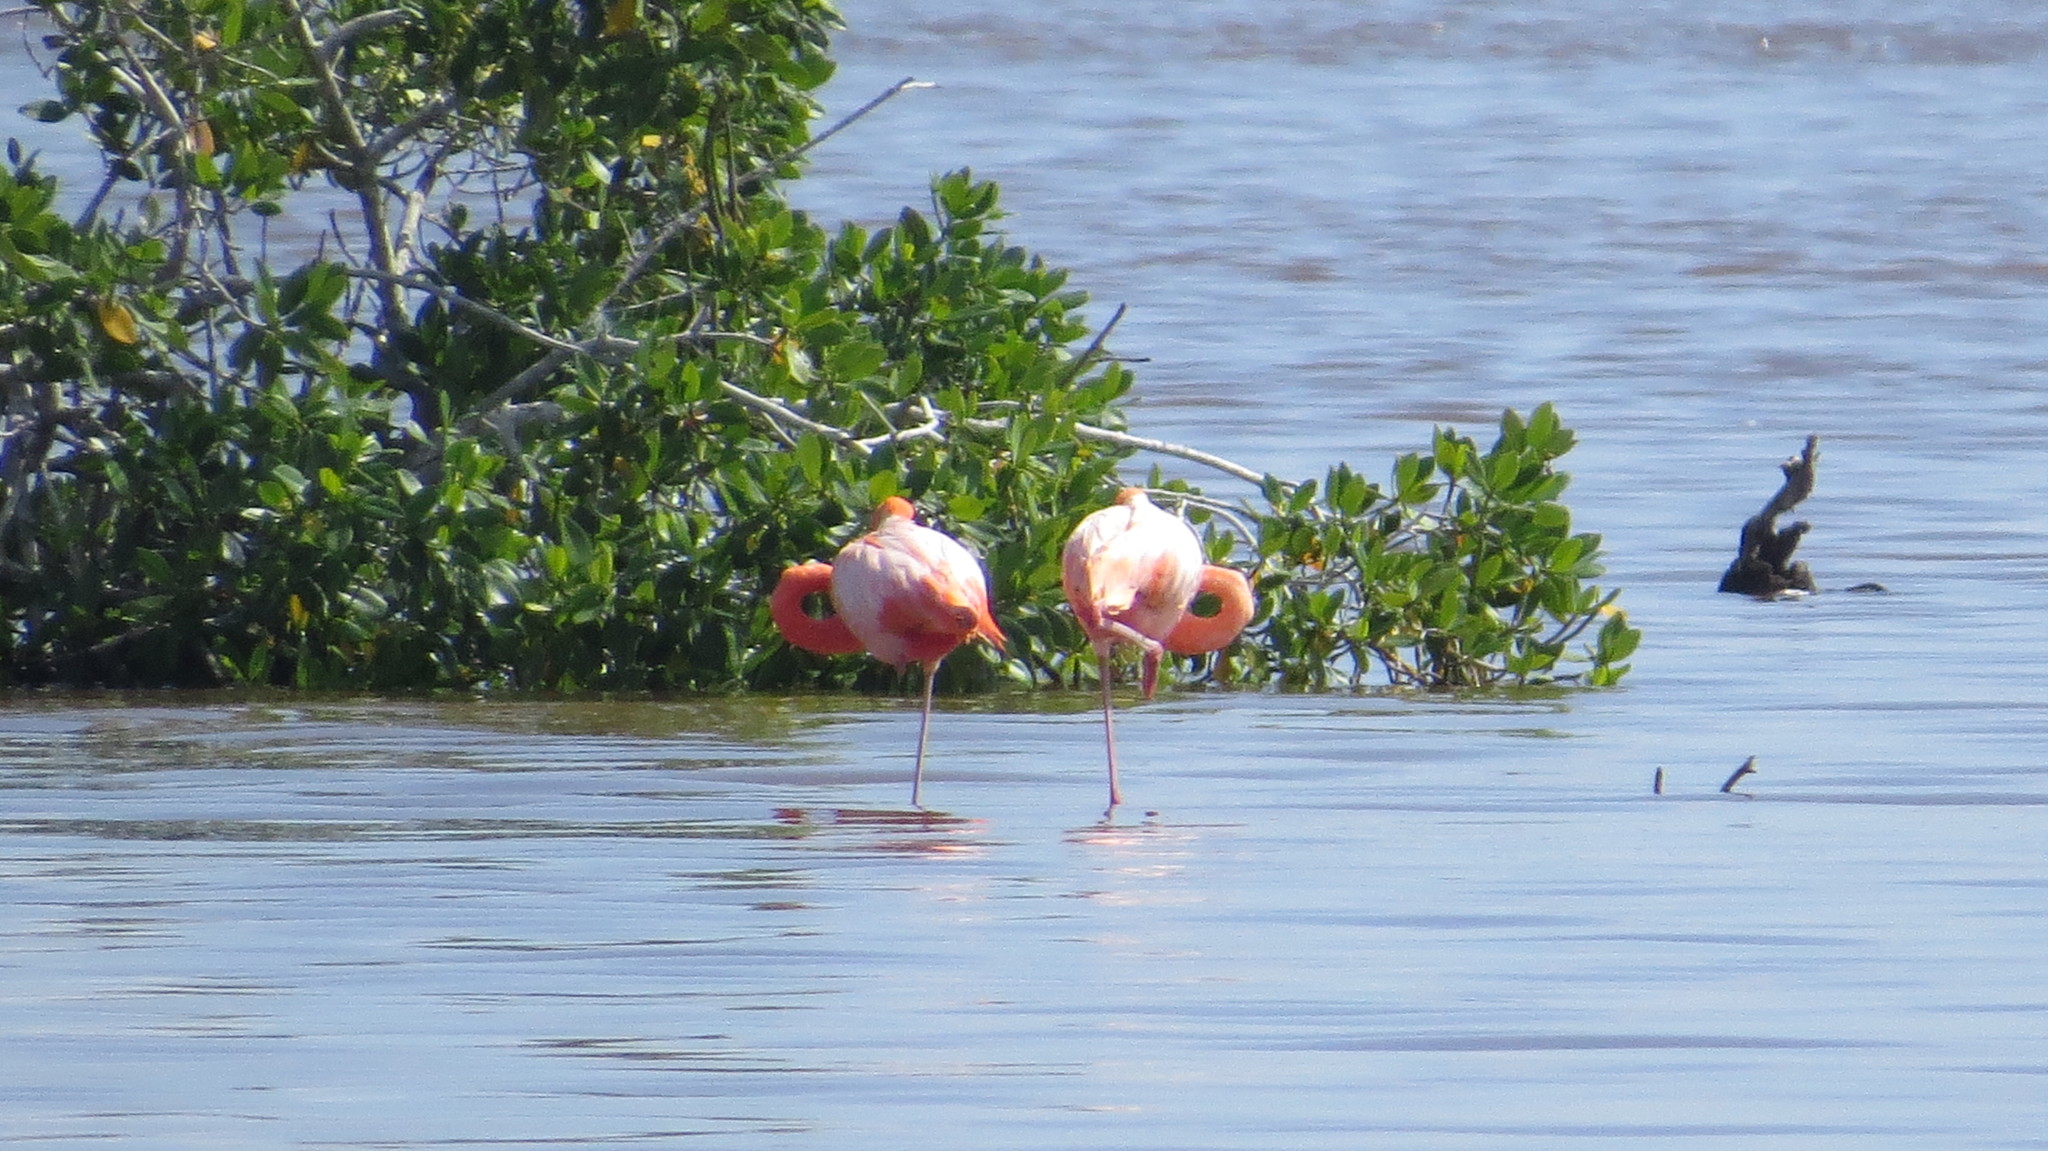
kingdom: Animalia
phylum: Chordata
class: Aves
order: Phoenicopteriformes
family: Phoenicopteridae
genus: Phoenicopterus
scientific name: Phoenicopterus ruber
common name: American flamingo
